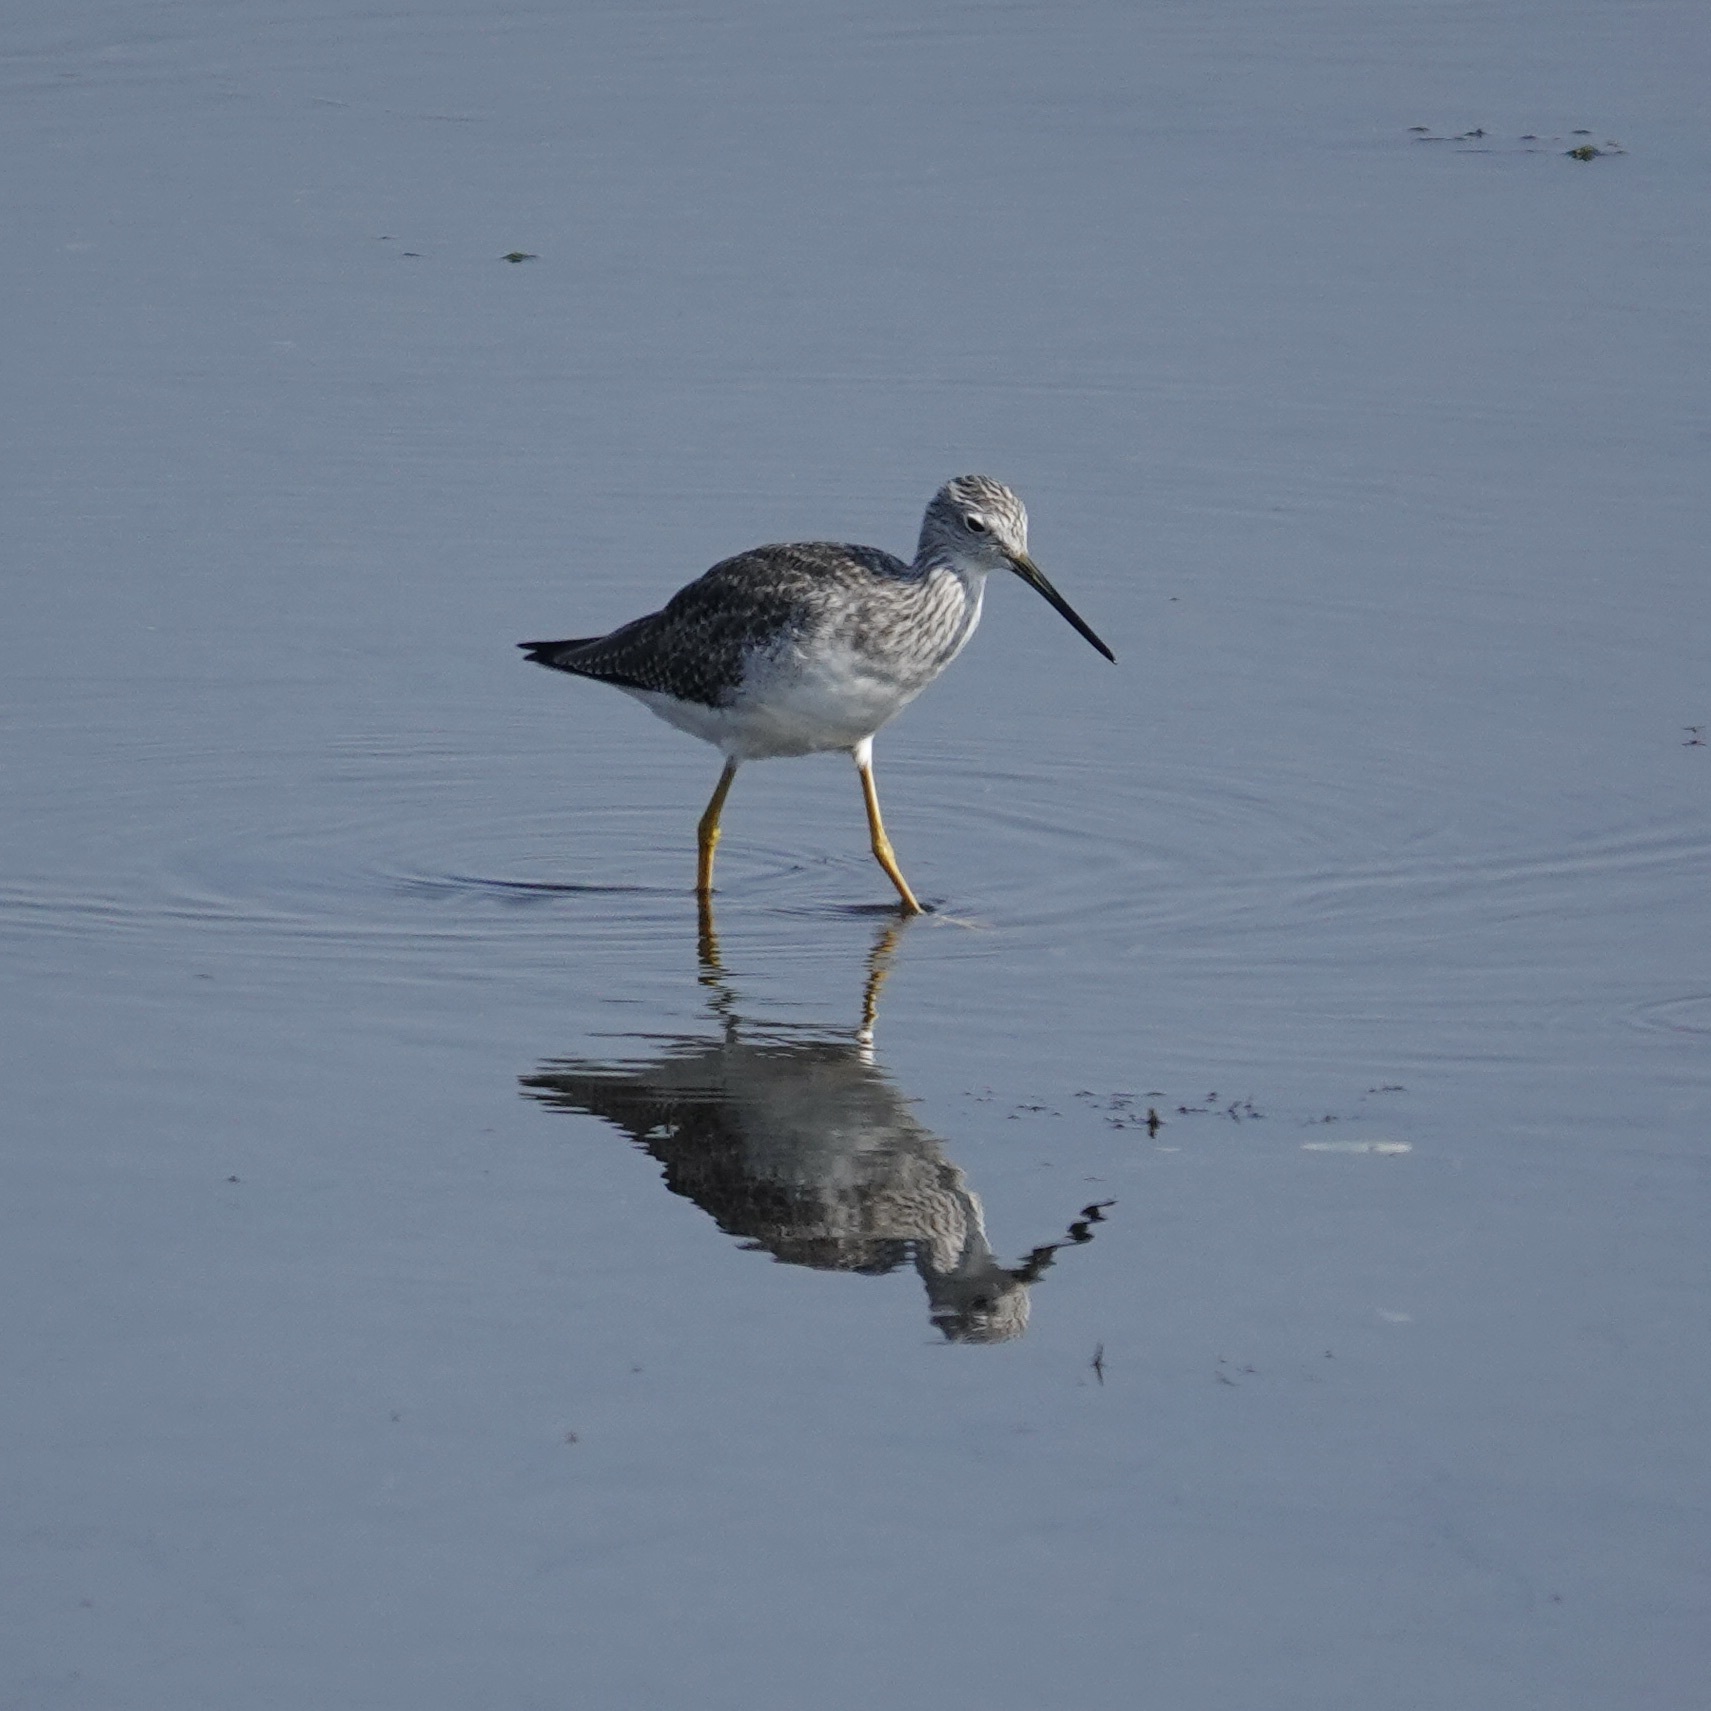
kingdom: Animalia
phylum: Chordata
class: Aves
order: Charadriiformes
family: Scolopacidae
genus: Tringa
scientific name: Tringa melanoleuca
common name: Greater yellowlegs
